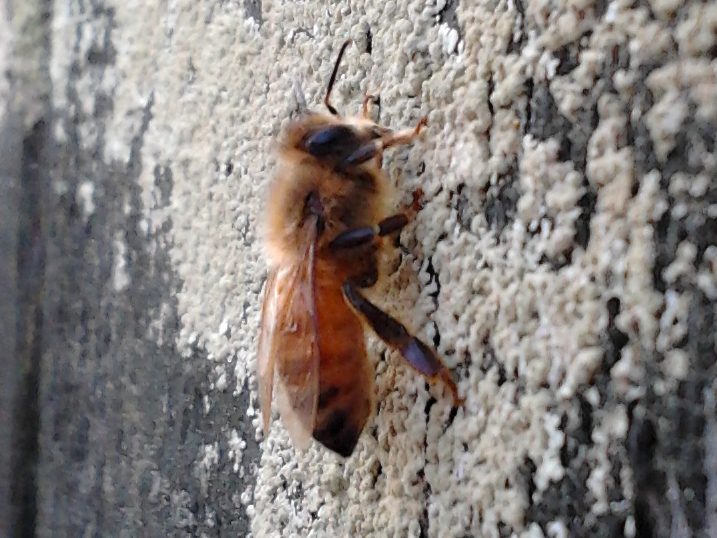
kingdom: Animalia
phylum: Arthropoda
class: Insecta
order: Hymenoptera
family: Apidae
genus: Apis
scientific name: Apis mellifera
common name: Honey bee
